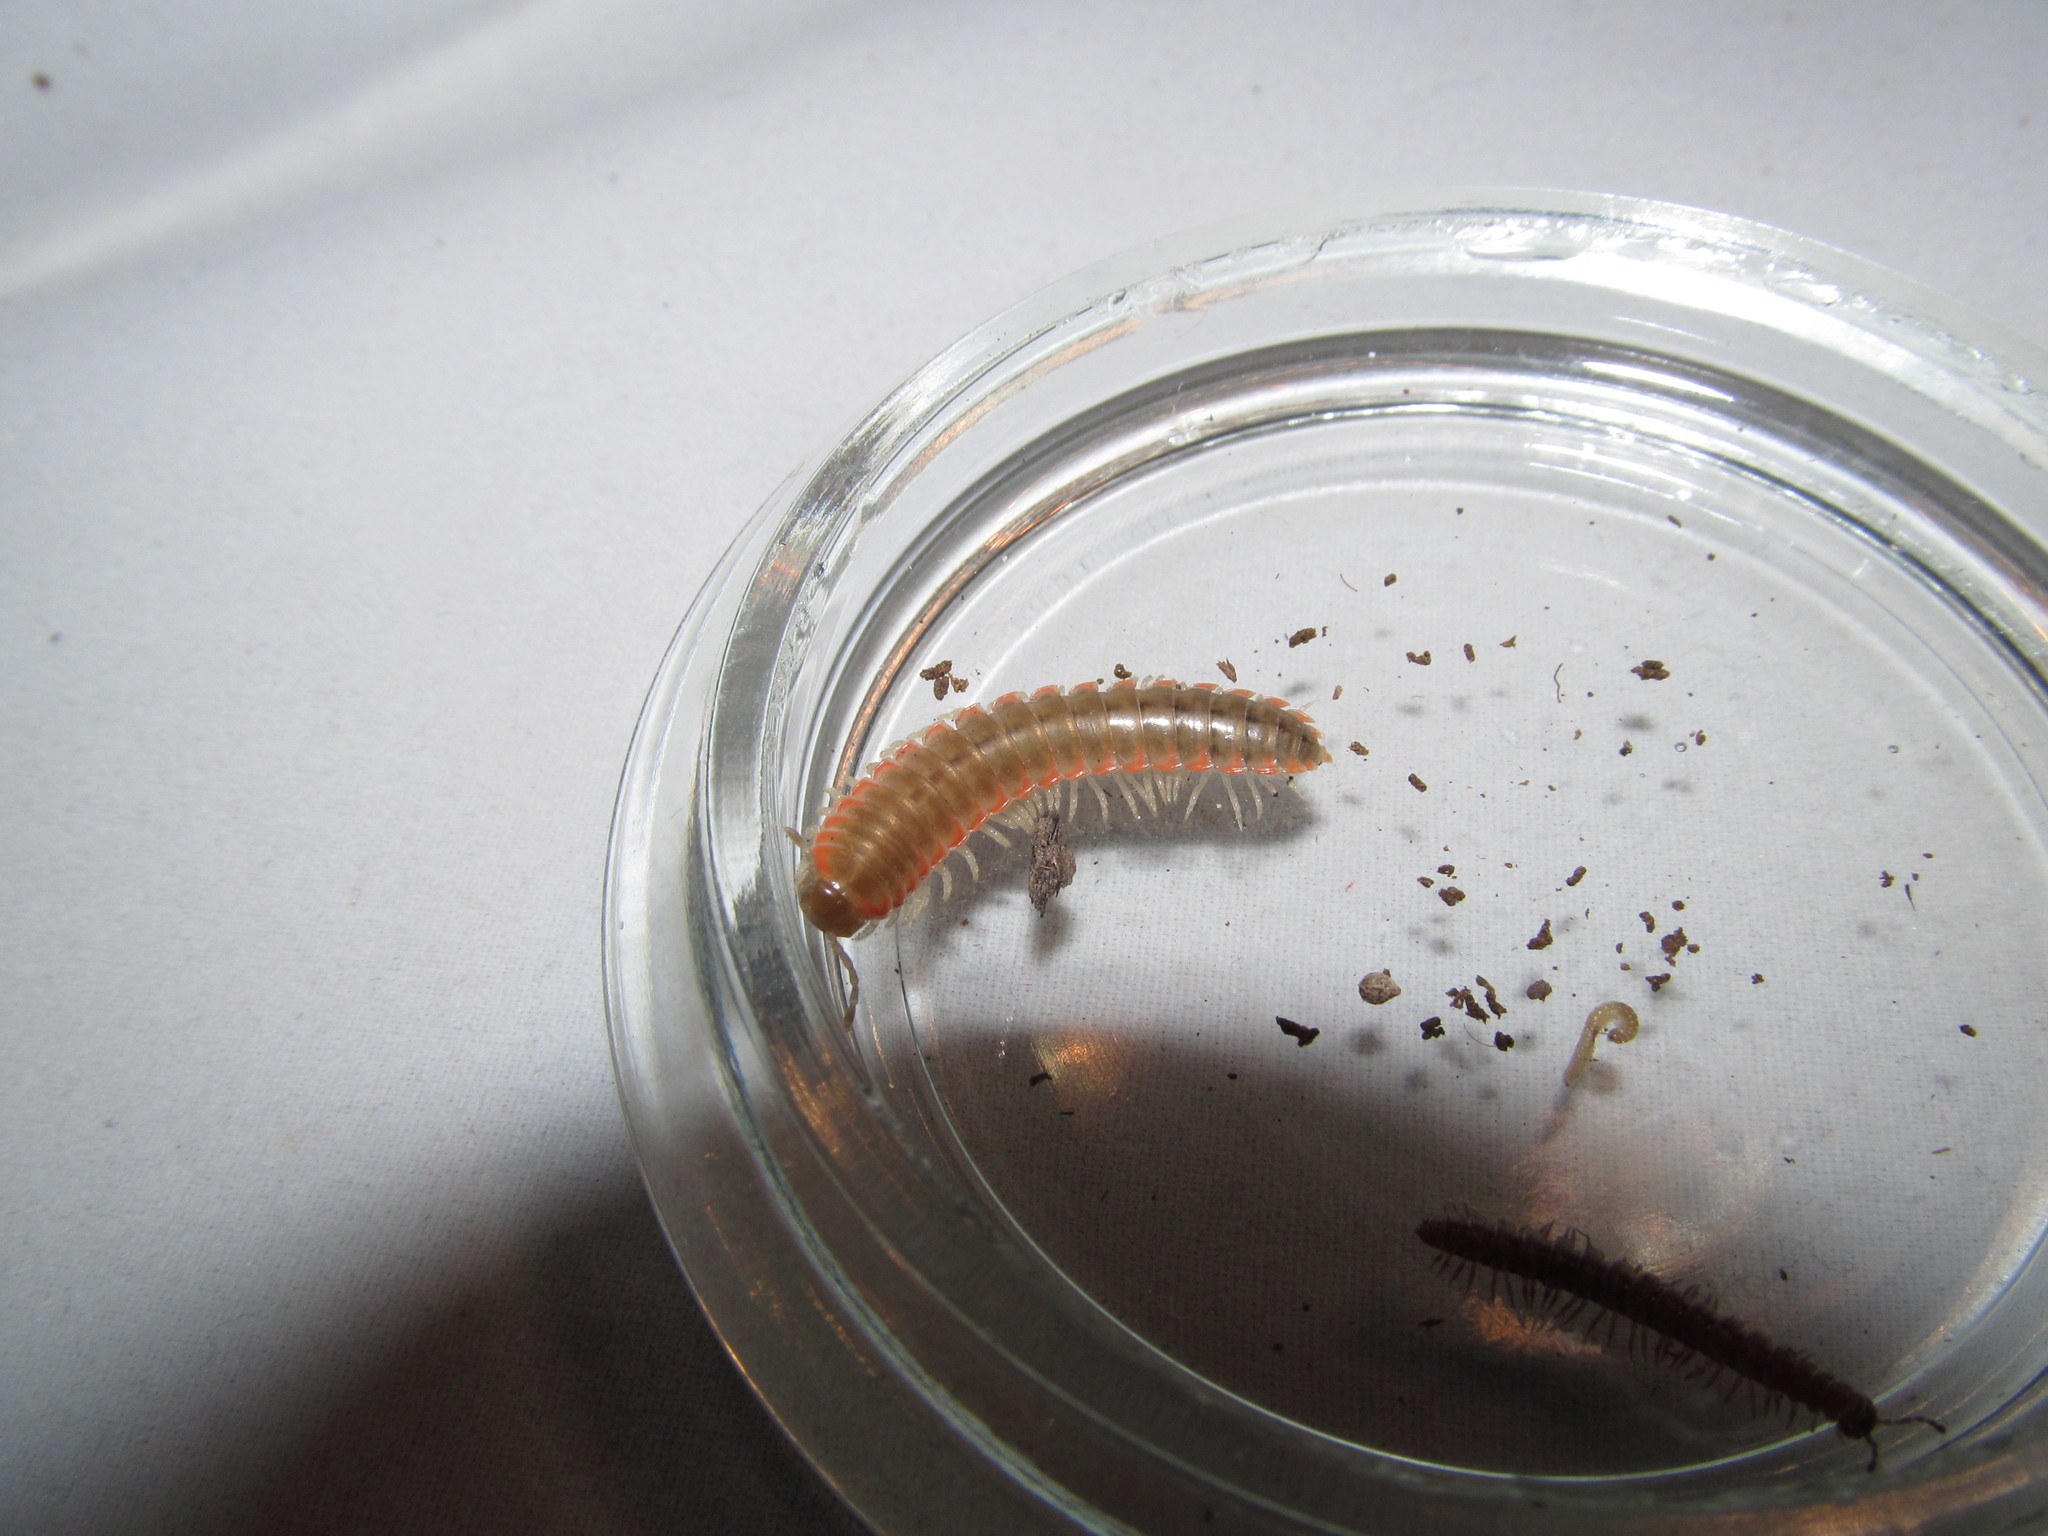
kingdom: Animalia
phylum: Arthropoda
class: Diplopoda
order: Polydesmida
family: Xystodesmidae
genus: Nannaria
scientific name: Nannaria ohionis
